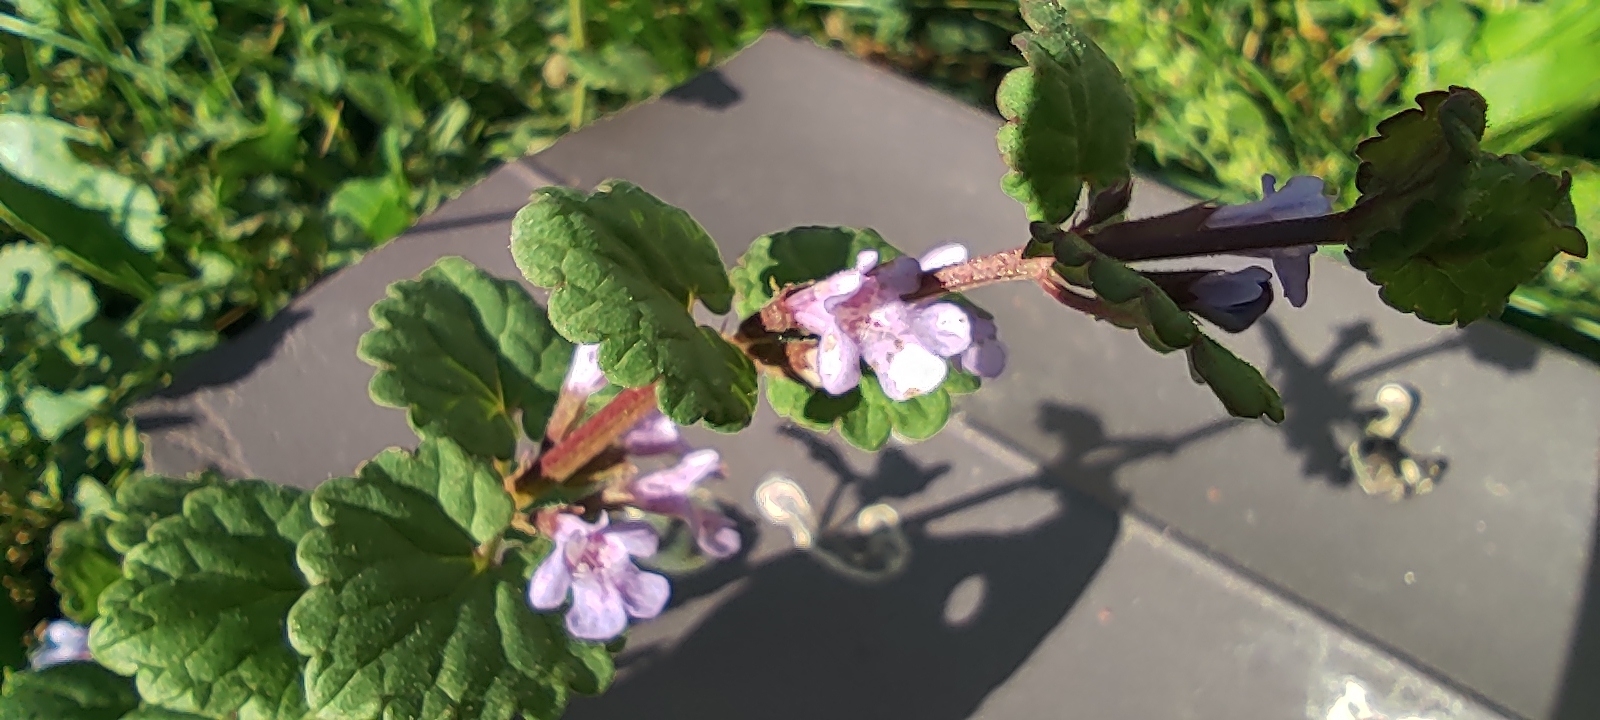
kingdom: Plantae
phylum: Tracheophyta
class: Magnoliopsida
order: Lamiales
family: Lamiaceae
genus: Glechoma
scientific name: Glechoma hederacea
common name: Ground ivy
